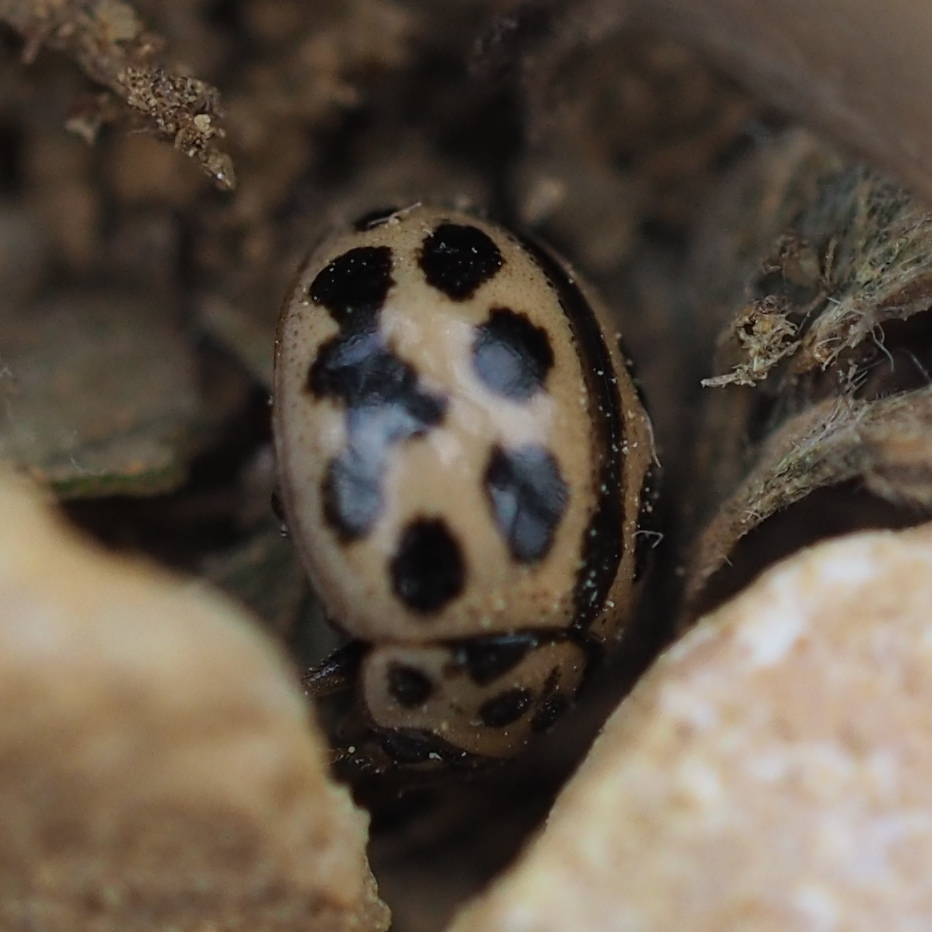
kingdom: Animalia
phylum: Arthropoda
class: Insecta
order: Coleoptera
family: Coccinellidae
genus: Tytthaspis
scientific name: Tytthaspis sedecimpunctata
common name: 16-spot ladybird
